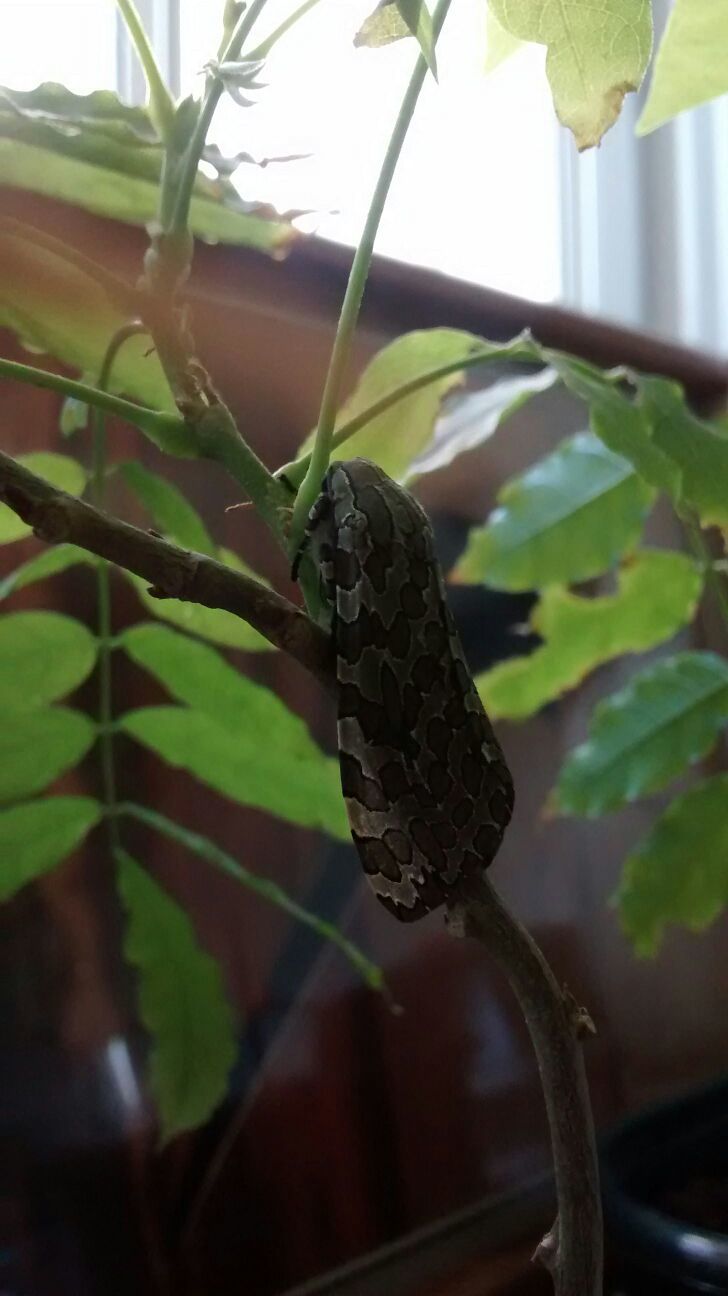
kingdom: Animalia
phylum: Arthropoda
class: Insecta
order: Lepidoptera
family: Erebidae
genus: Hypercompe
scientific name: Hypercompe indecisa
